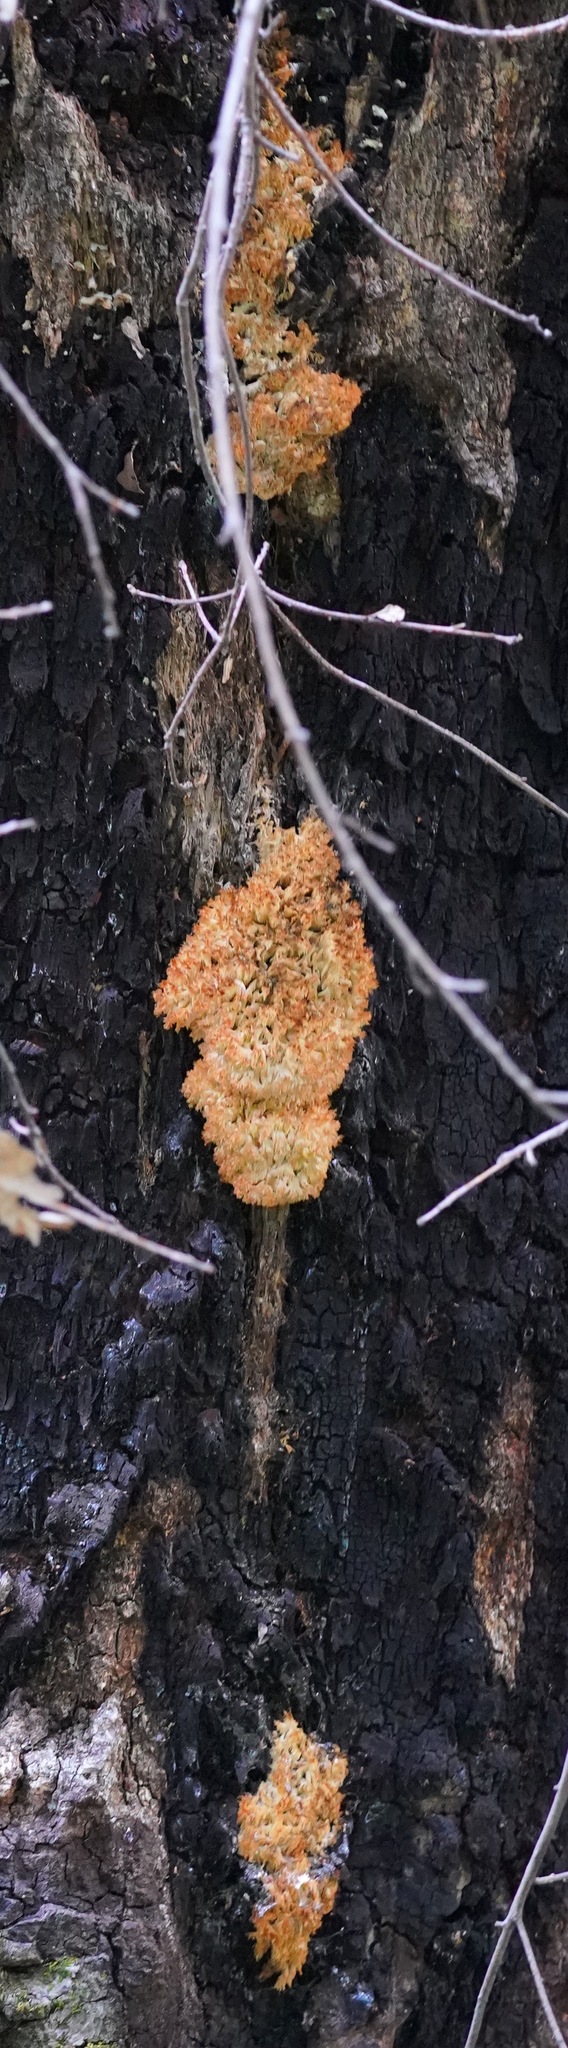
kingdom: Fungi
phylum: Basidiomycota
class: Agaricomycetes
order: Russulales
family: Hericiaceae
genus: Hericium
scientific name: Hericium coralloides
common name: Coral tooth
